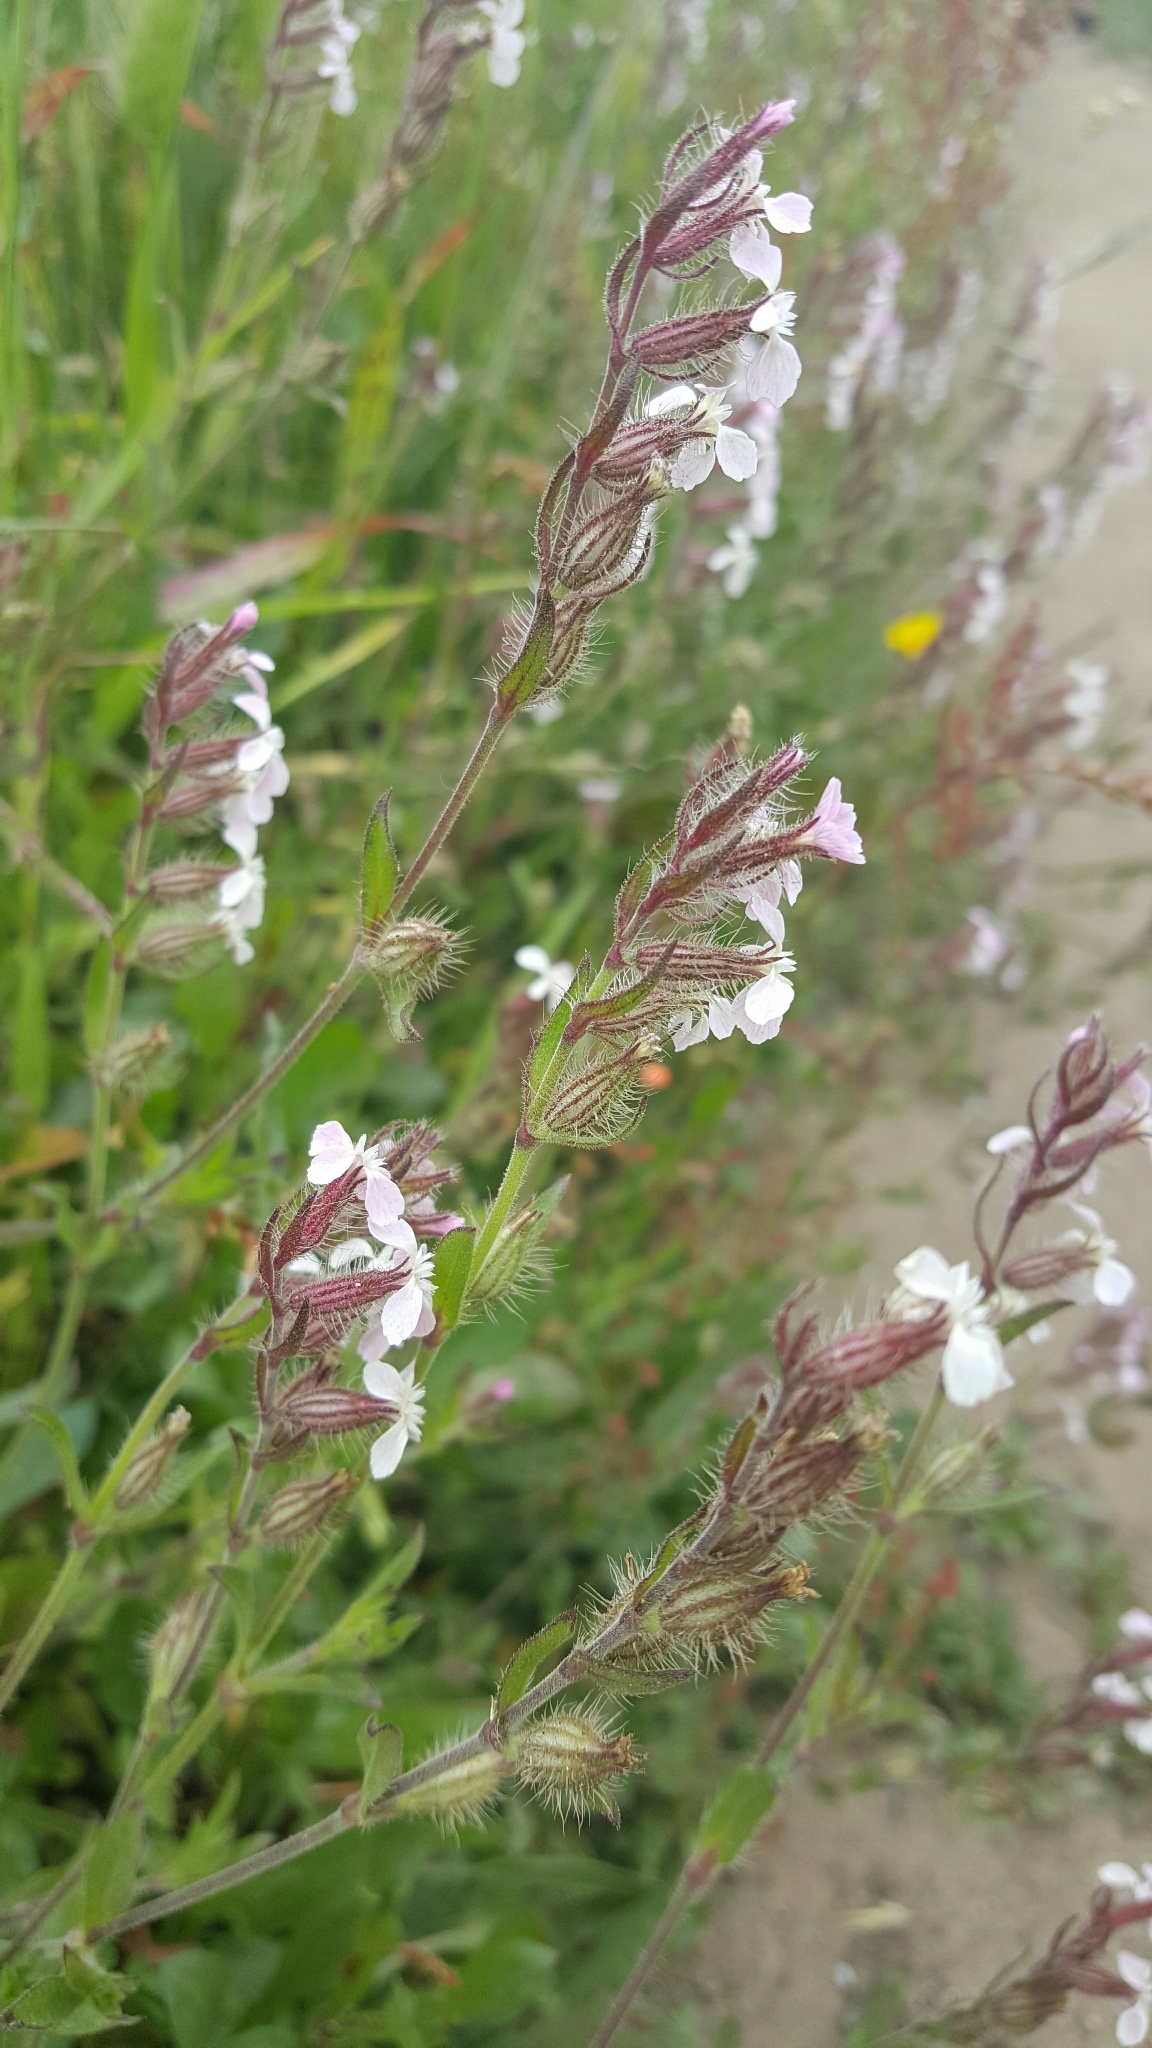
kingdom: Plantae
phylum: Tracheophyta
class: Magnoliopsida
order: Caryophyllales
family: Caryophyllaceae
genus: Silene
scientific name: Silene gallica
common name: Small-flowered catchfly
